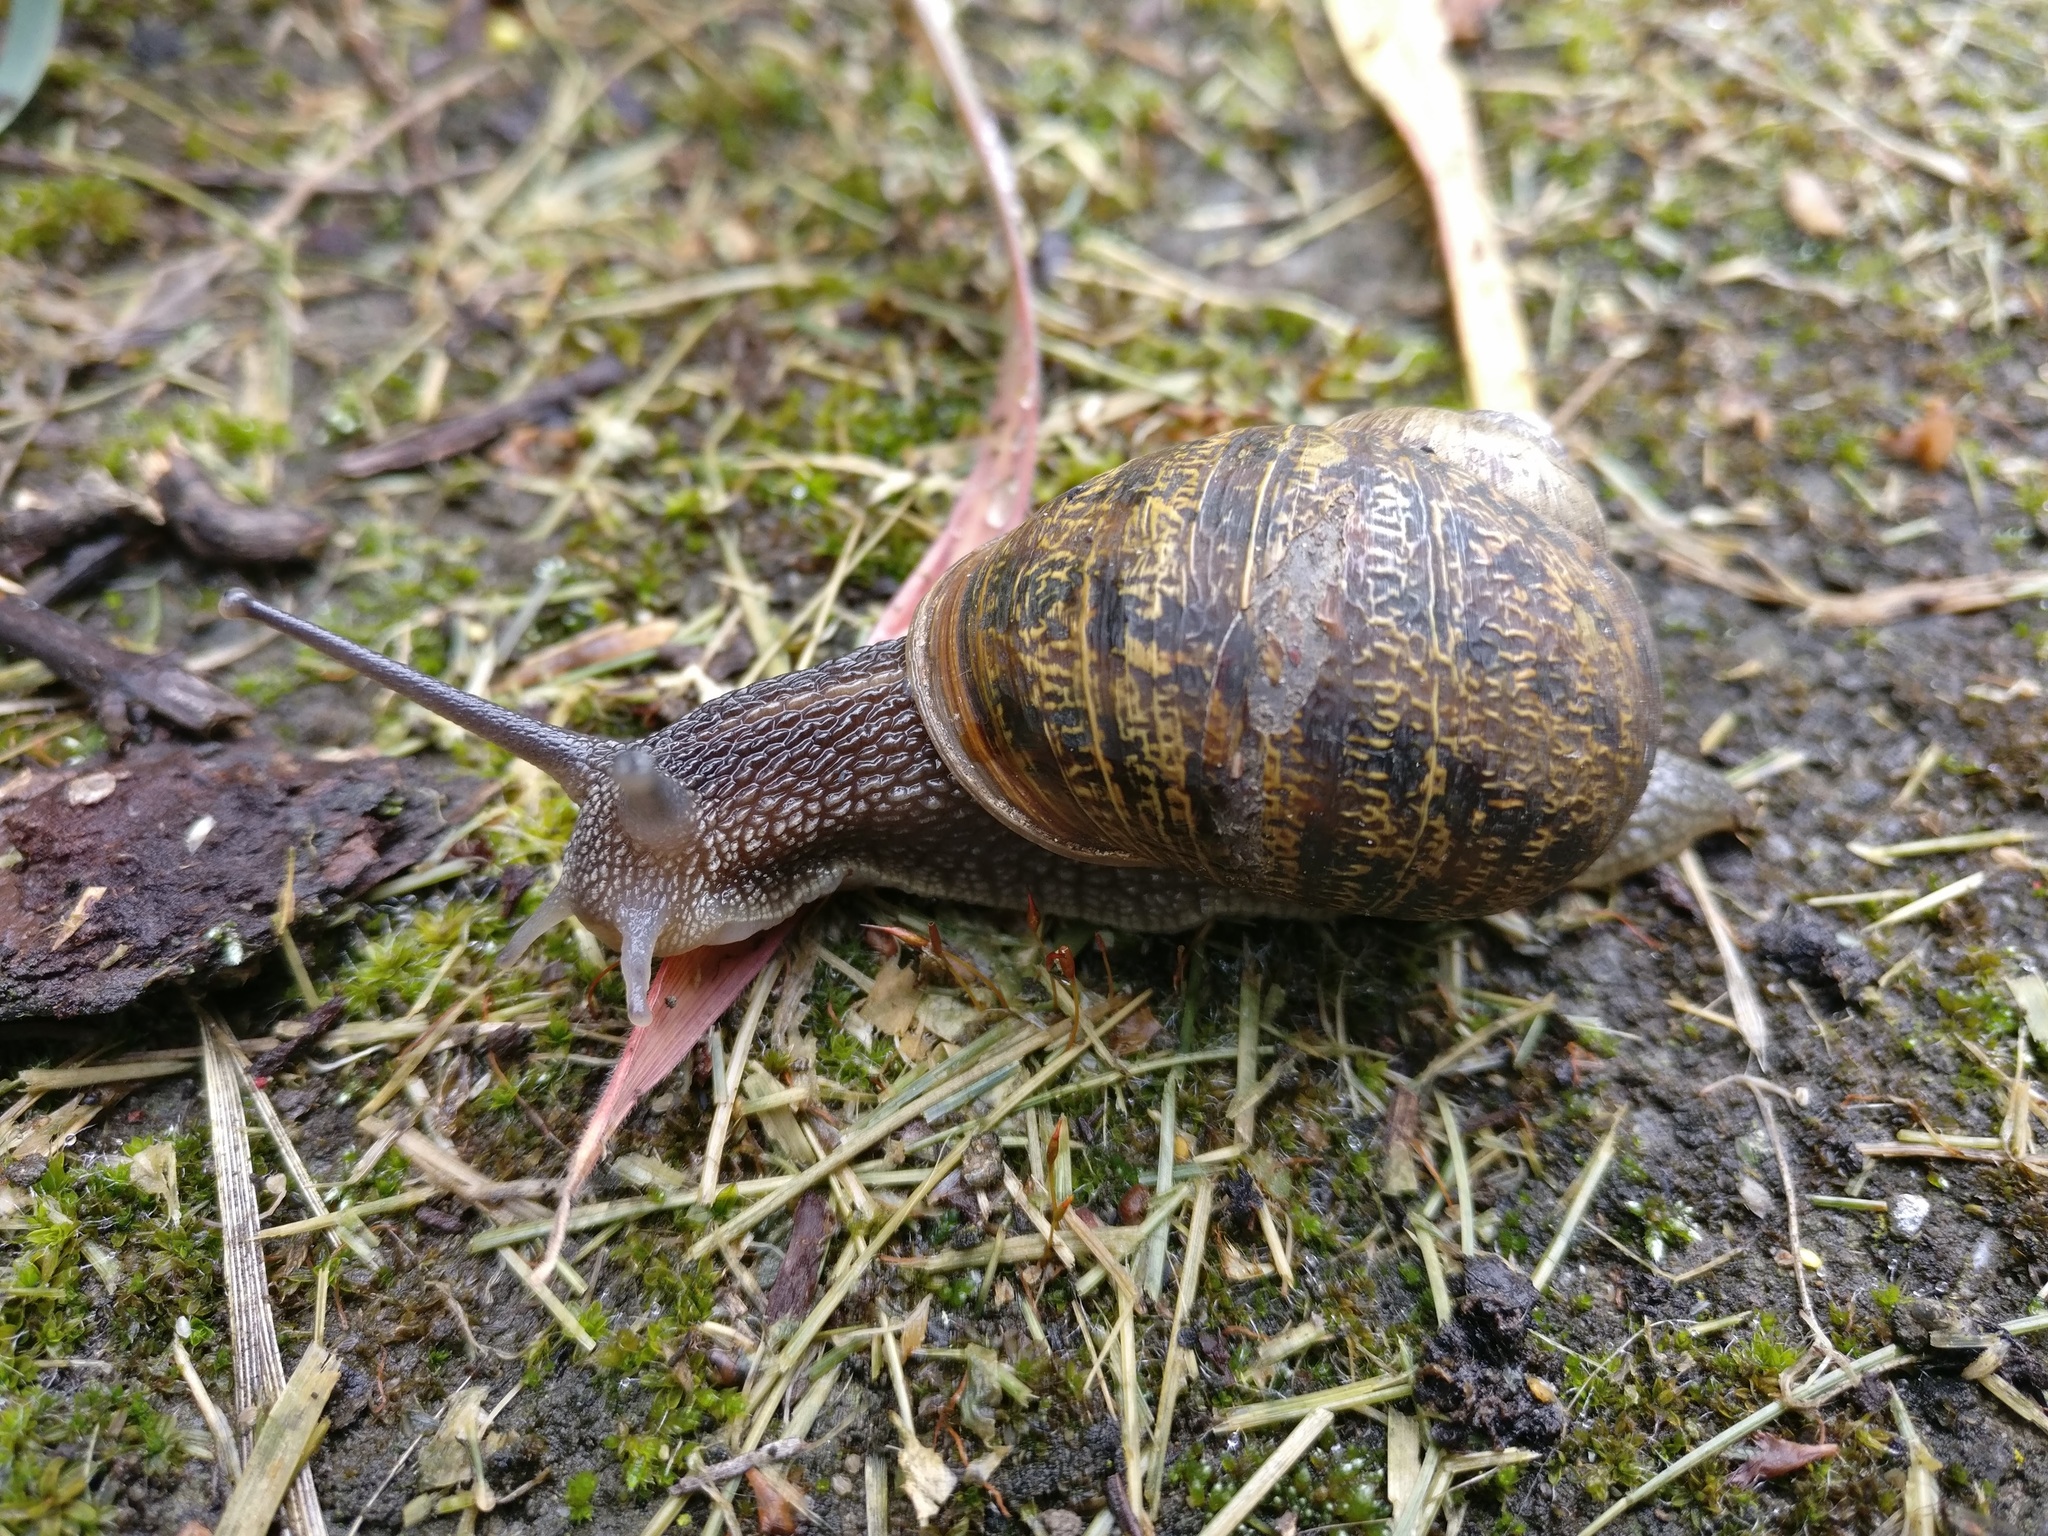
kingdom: Animalia
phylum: Mollusca
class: Gastropoda
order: Stylommatophora
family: Helicidae
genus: Cornu
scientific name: Cornu aspersum
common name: Brown garden snail
